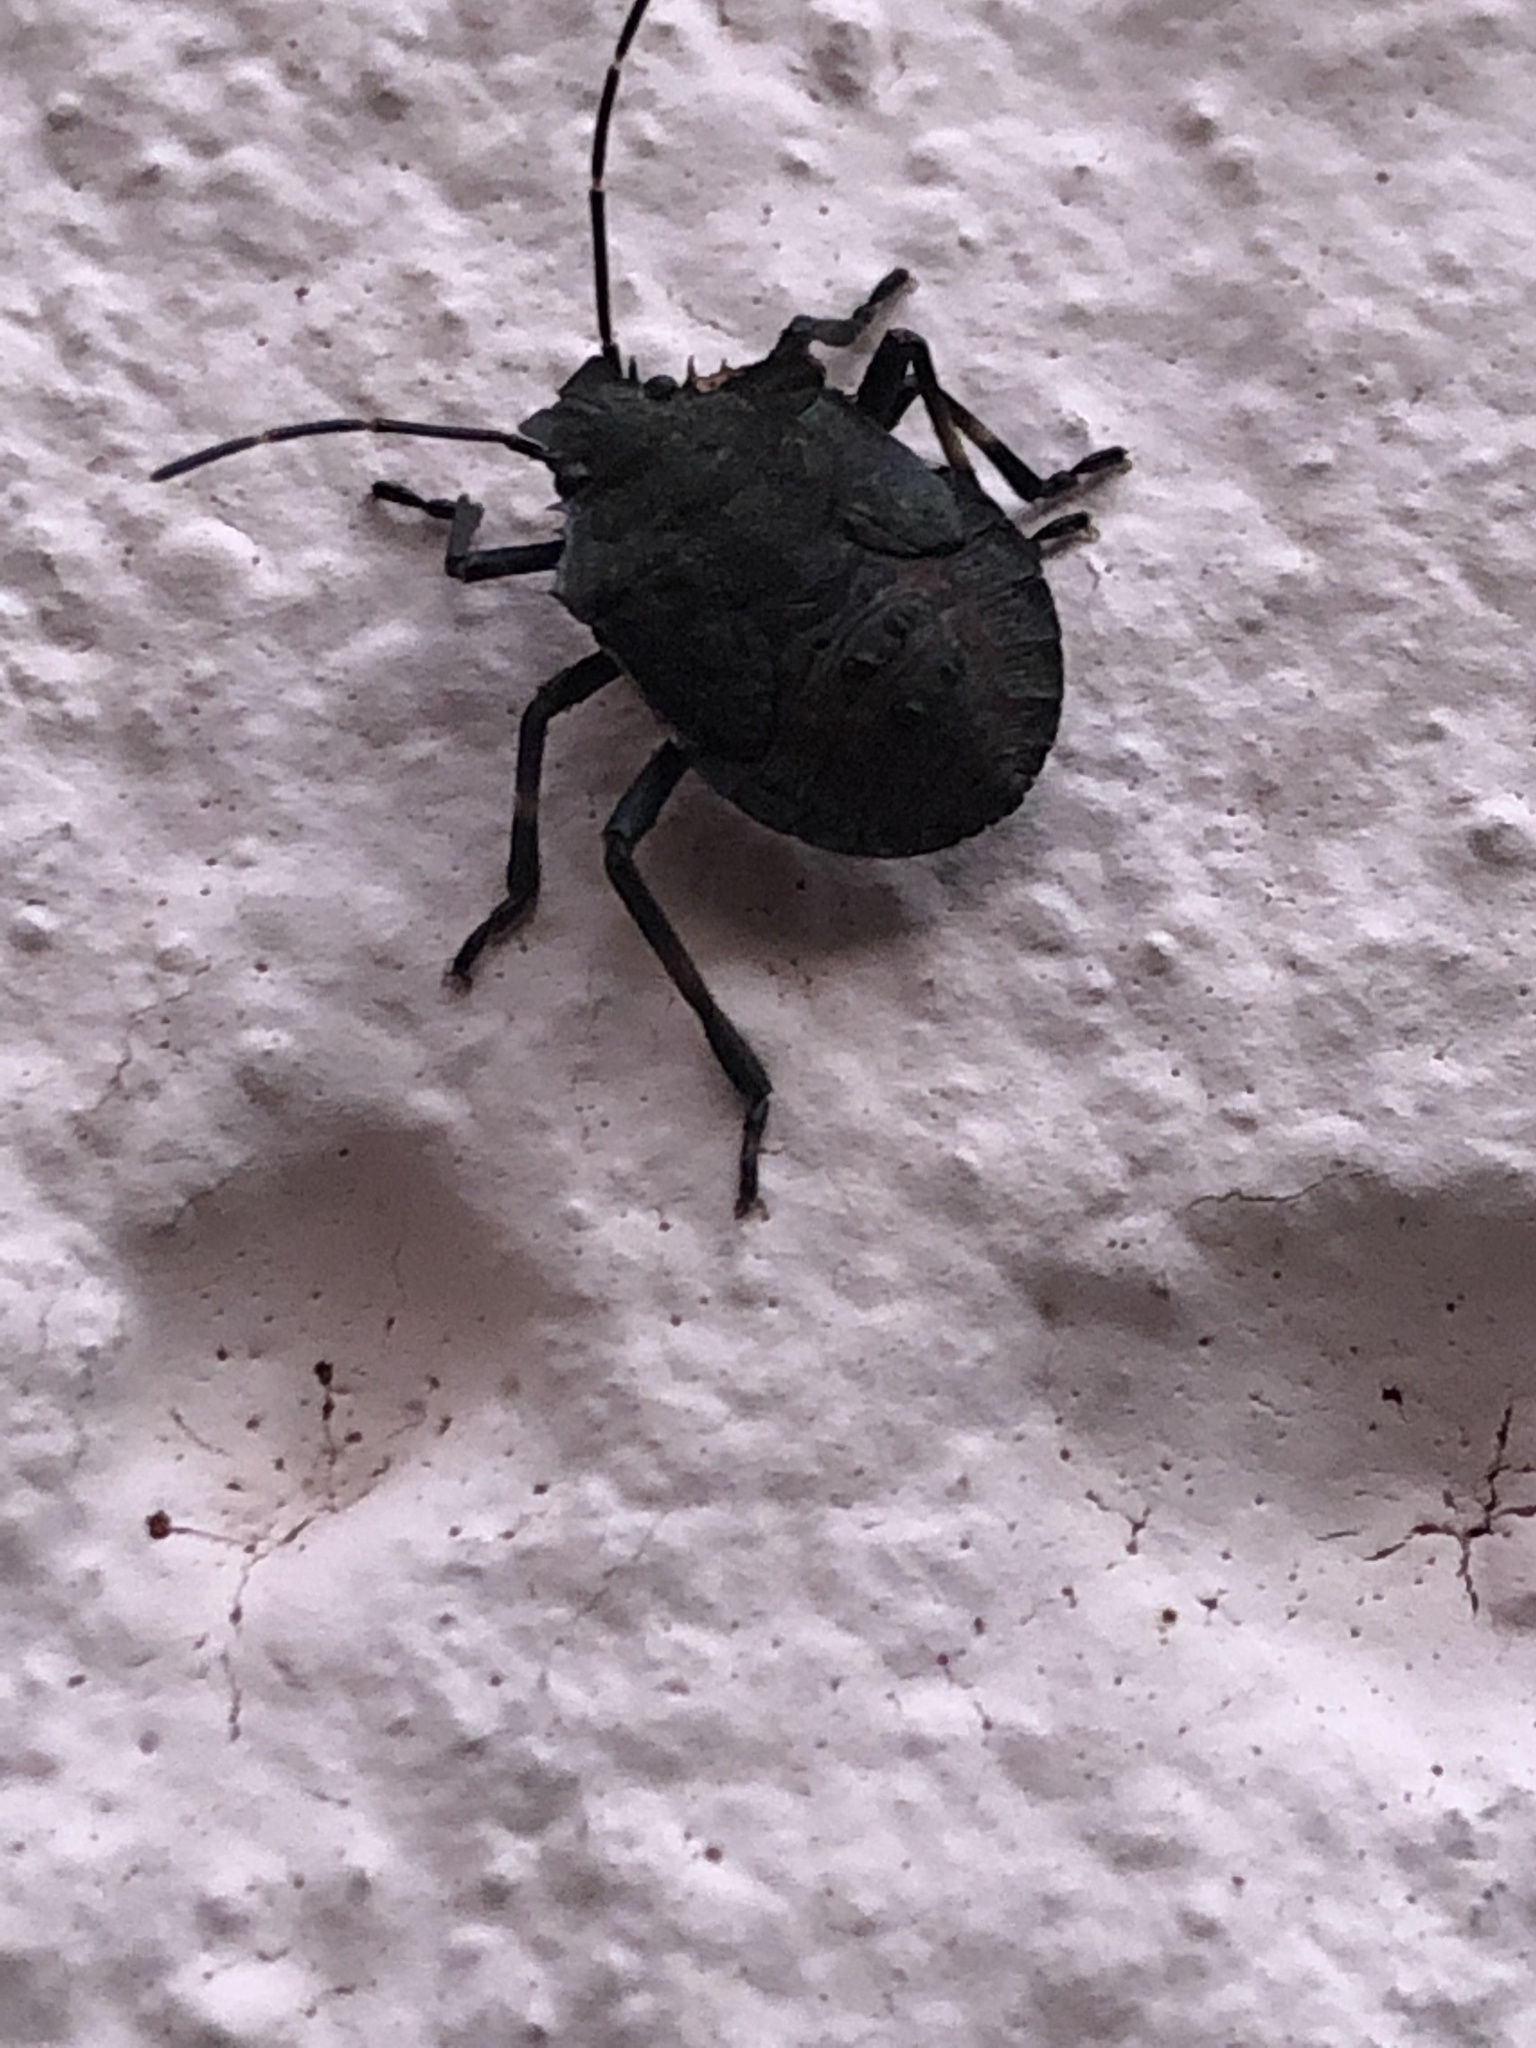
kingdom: Animalia
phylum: Arthropoda
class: Insecta
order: Hemiptera
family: Pentatomidae
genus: Halyomorpha
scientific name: Halyomorpha halys
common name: Brown marmorated stink bug
